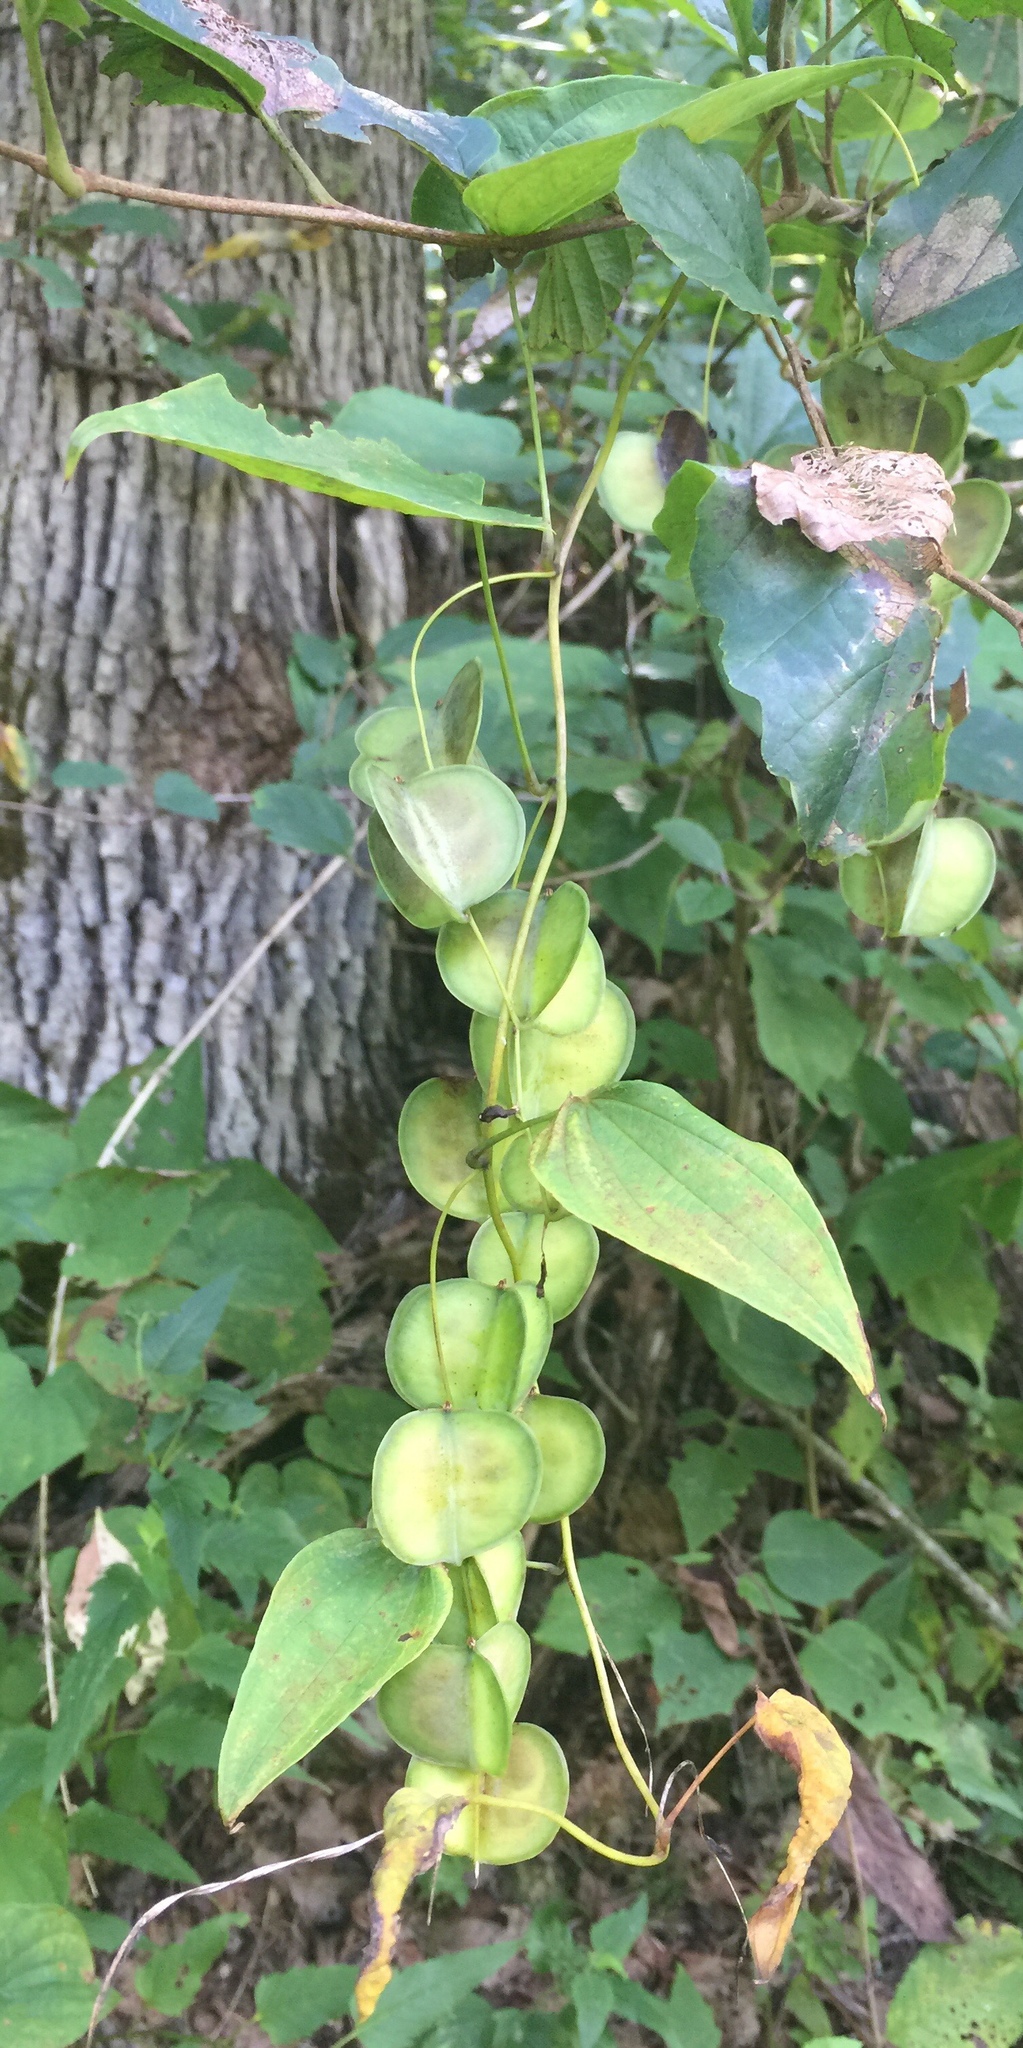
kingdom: Plantae
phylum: Tracheophyta
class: Liliopsida
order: Dioscoreales
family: Dioscoreaceae
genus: Dioscorea
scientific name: Dioscorea villosa
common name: Wild yam
